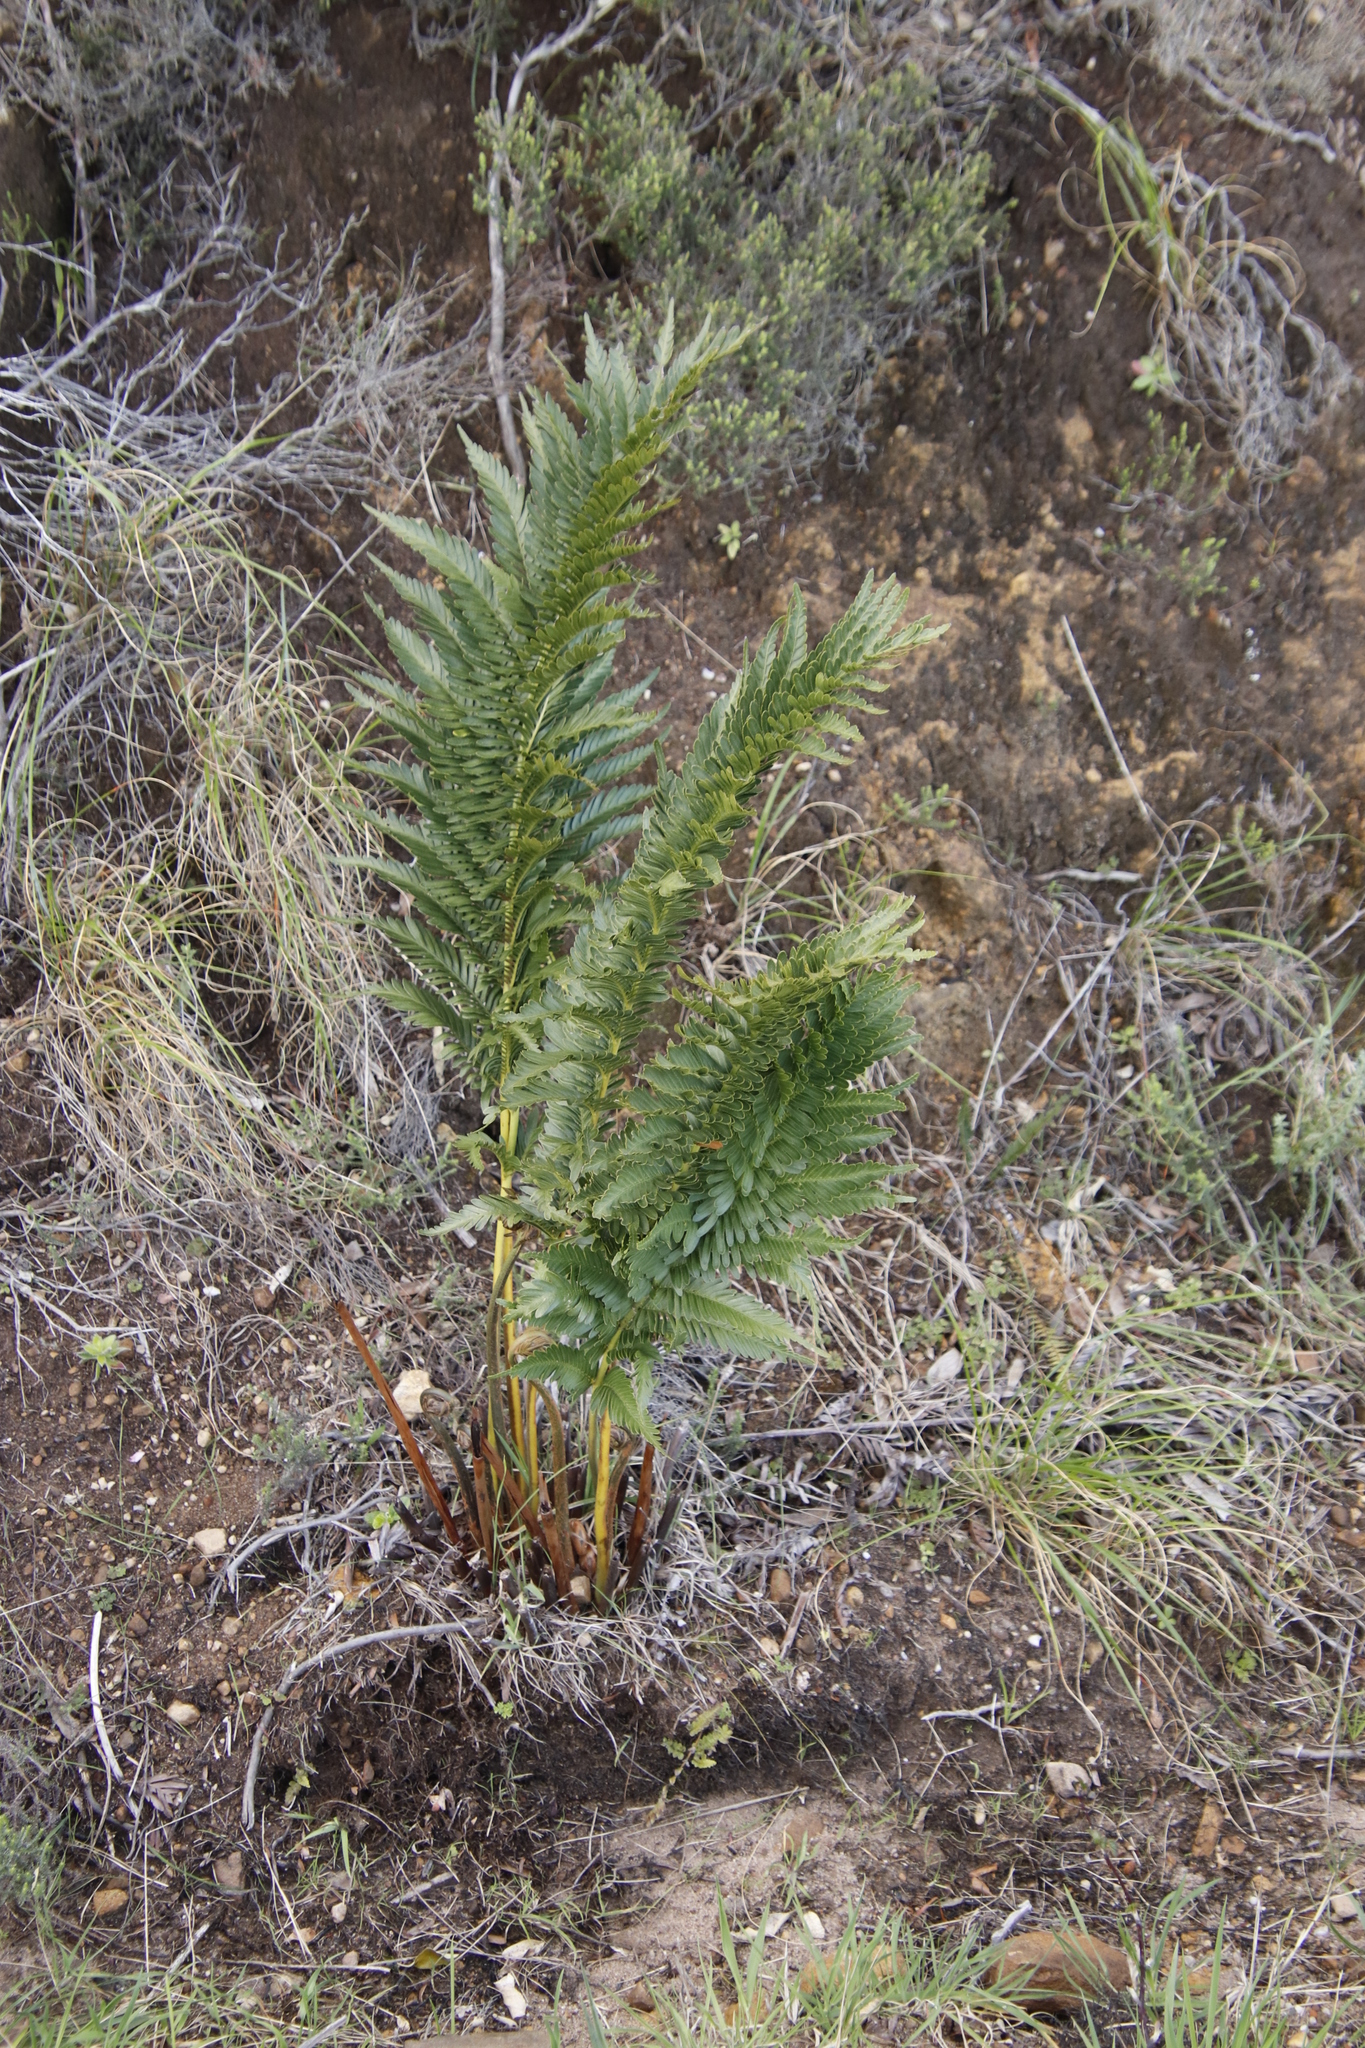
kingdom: Plantae
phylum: Tracheophyta
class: Polypodiopsida
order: Osmundales
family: Osmundaceae
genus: Todea
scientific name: Todea barbara
